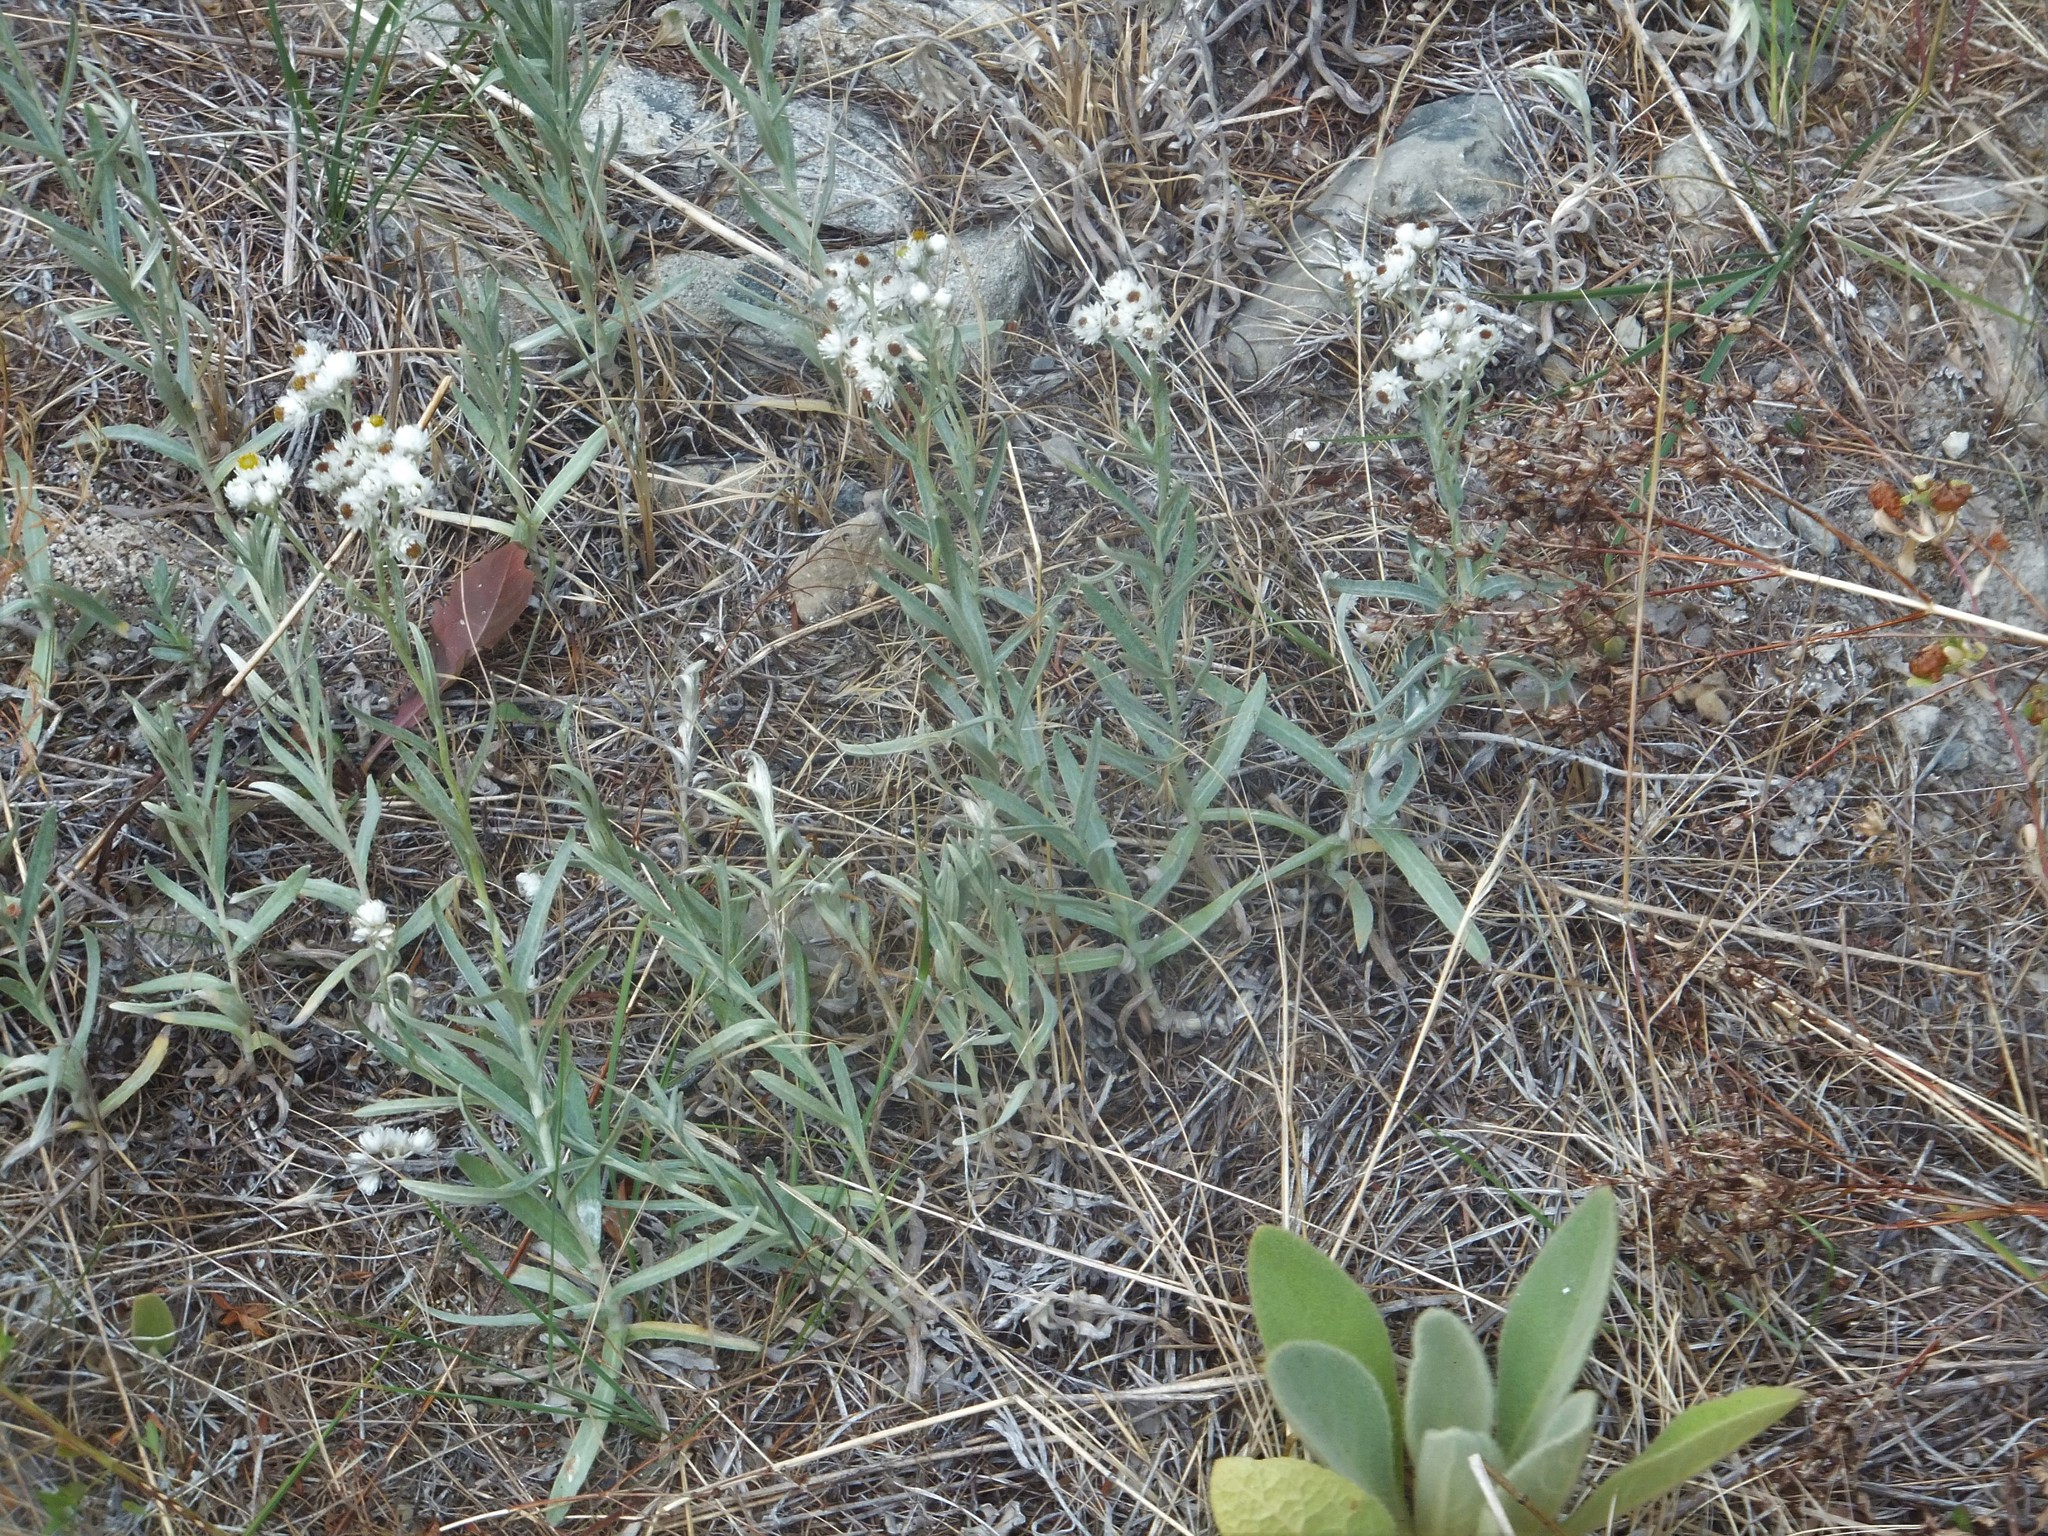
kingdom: Plantae
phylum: Tracheophyta
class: Magnoliopsida
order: Asterales
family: Asteraceae
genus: Anaphalis
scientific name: Anaphalis margaritacea
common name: Pearly everlasting
